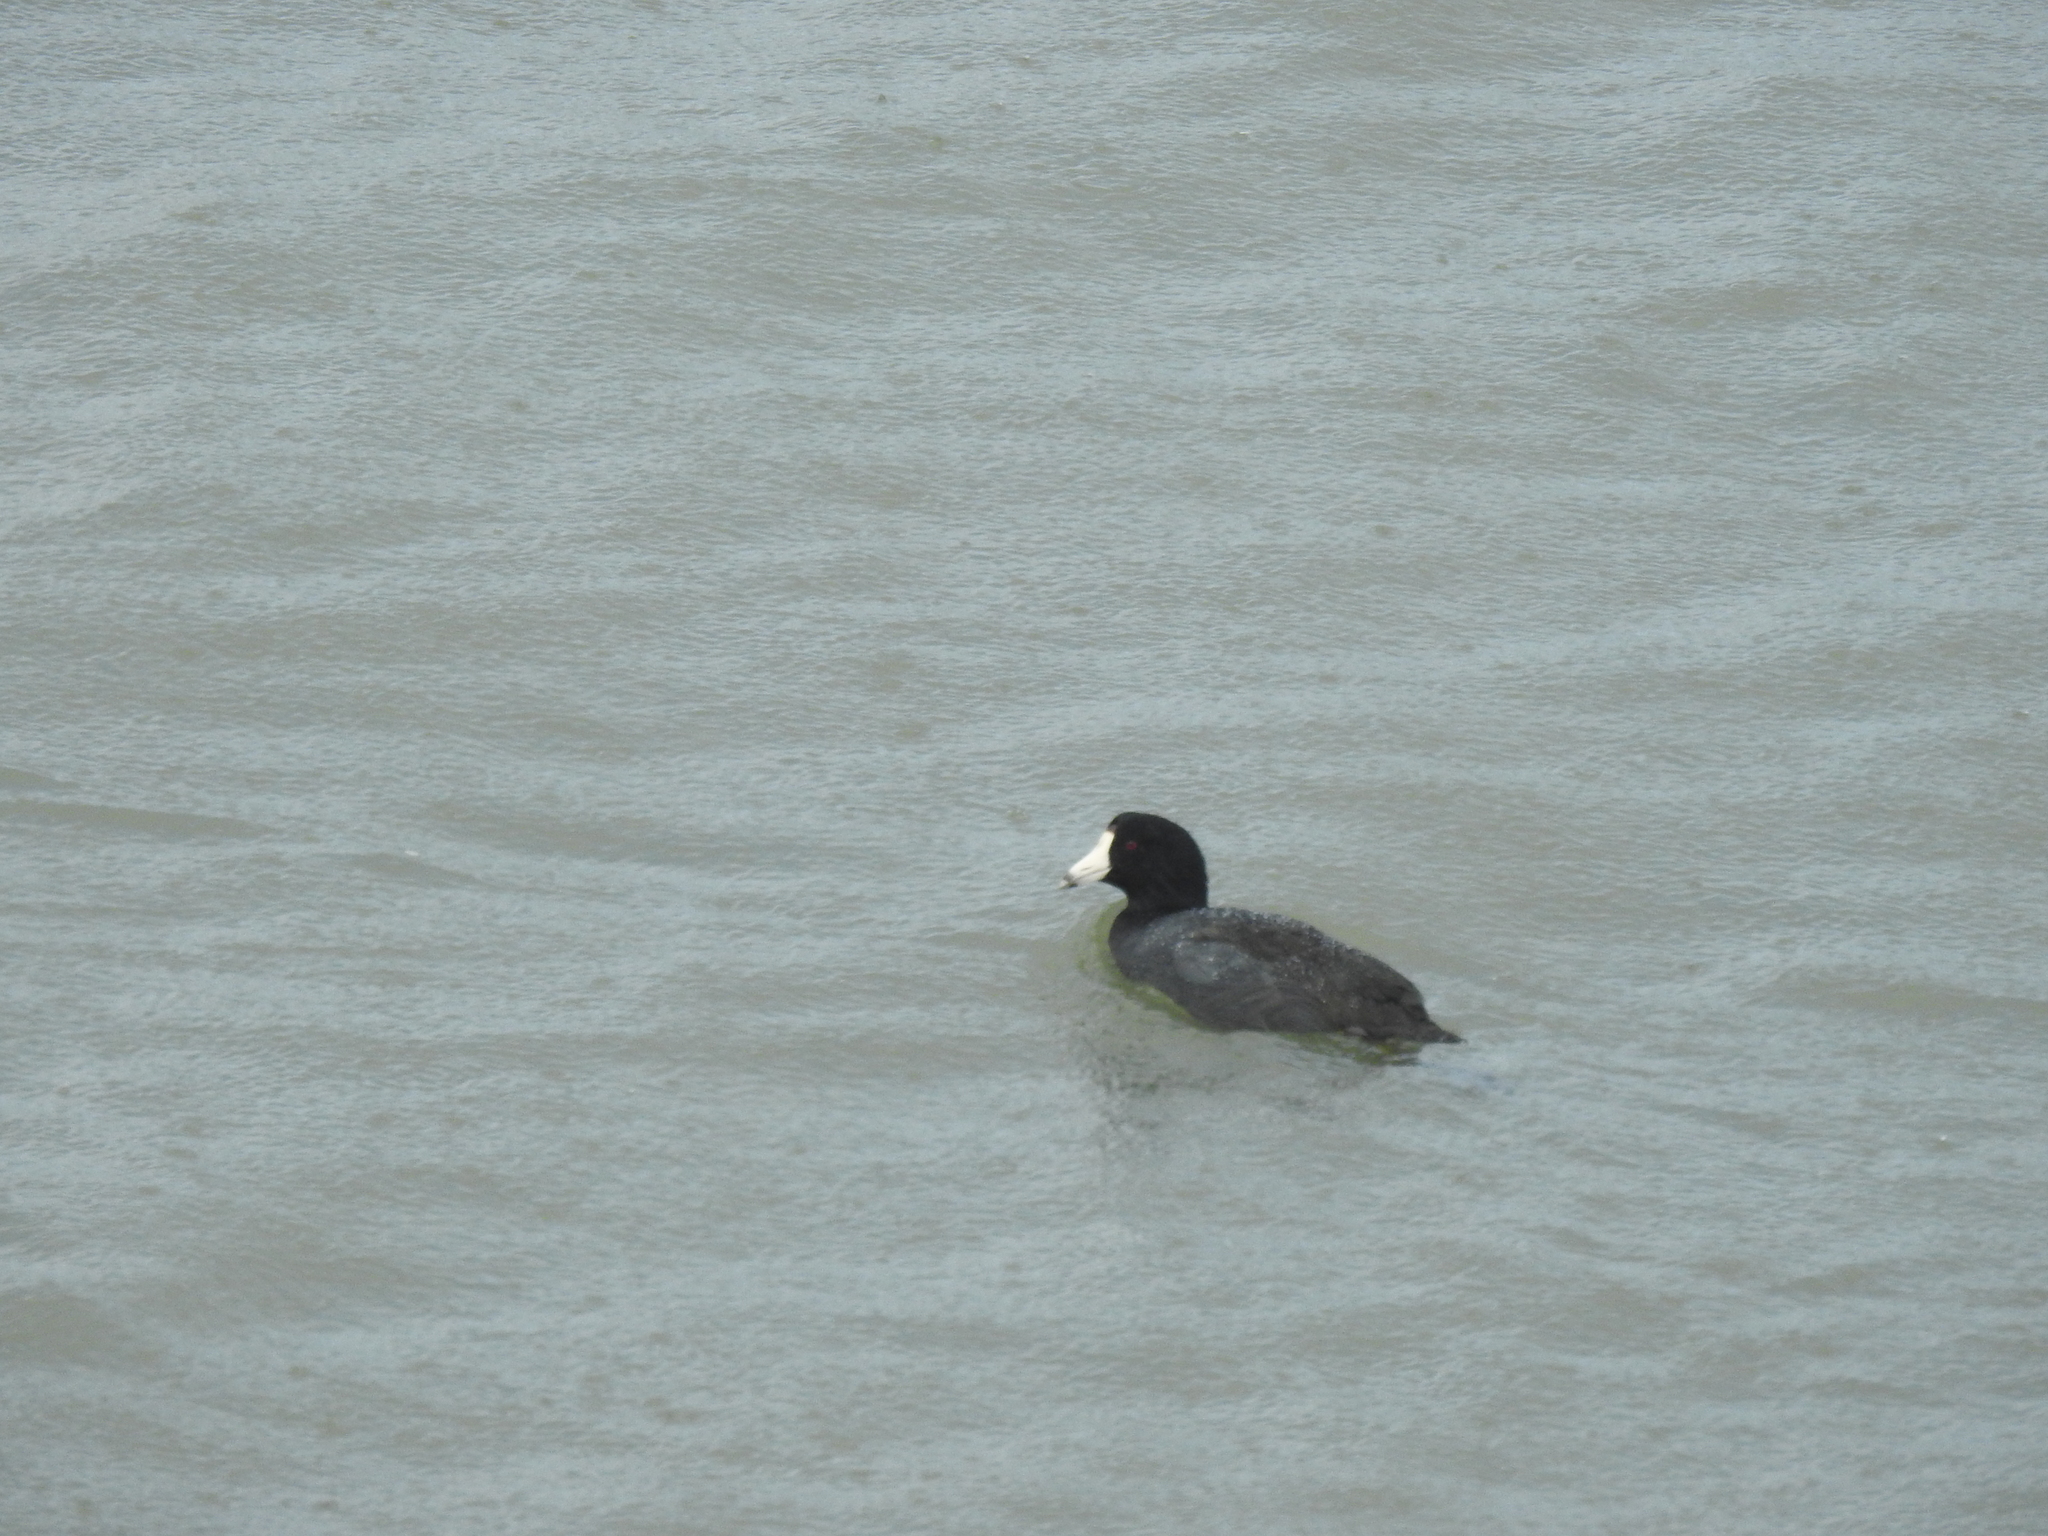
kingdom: Animalia
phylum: Chordata
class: Aves
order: Gruiformes
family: Rallidae
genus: Fulica
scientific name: Fulica americana
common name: American coot
